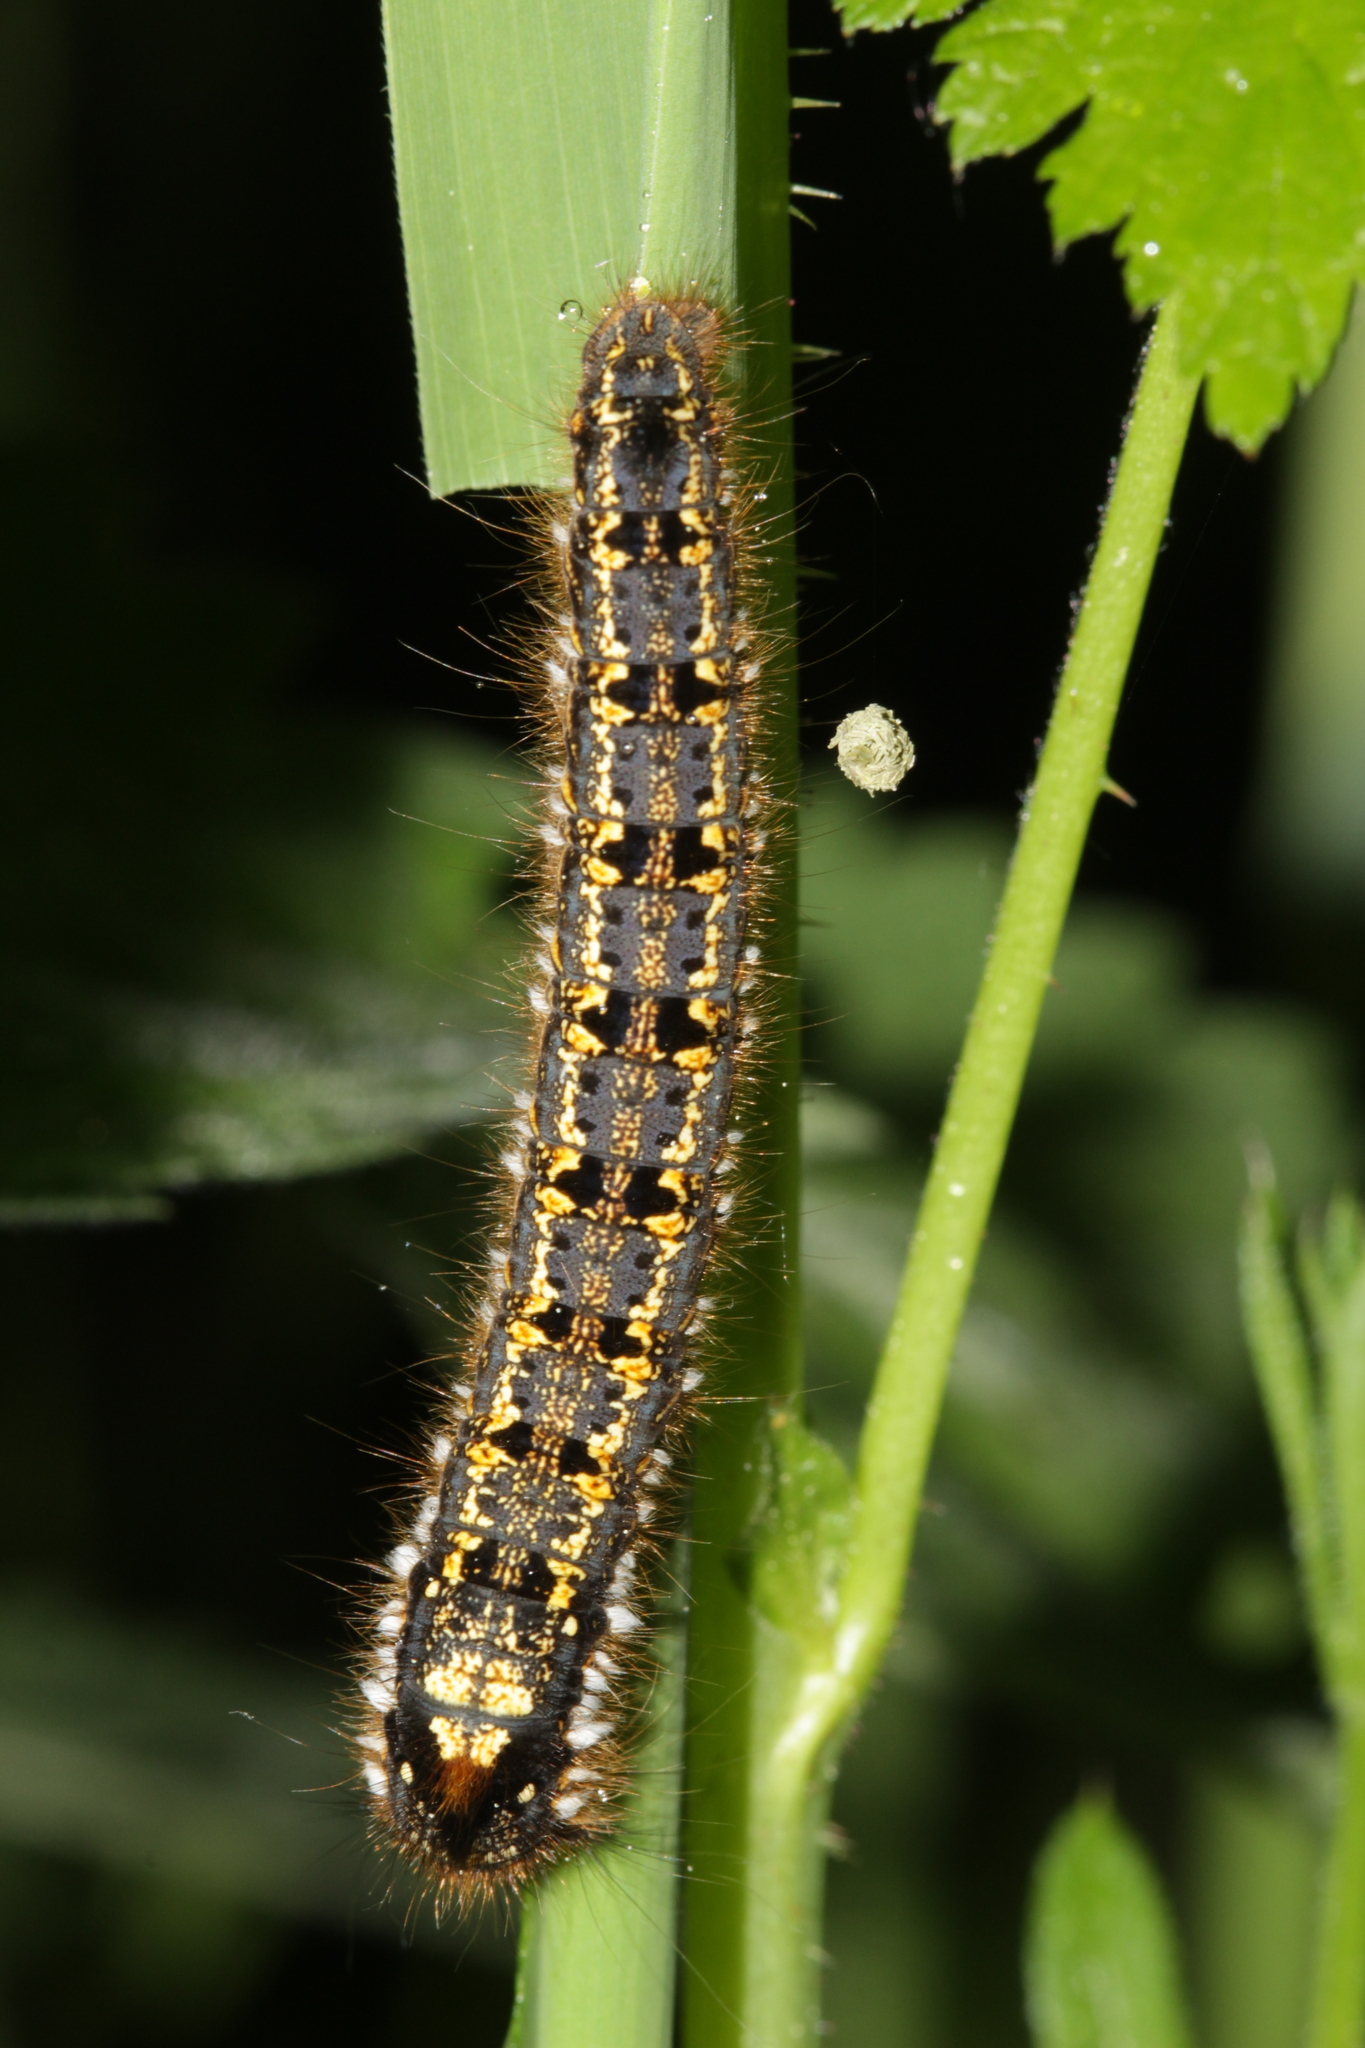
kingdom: Animalia
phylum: Arthropoda
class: Insecta
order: Lepidoptera
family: Lasiocampidae
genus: Euthrix
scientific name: Euthrix potatoria
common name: Drinker
